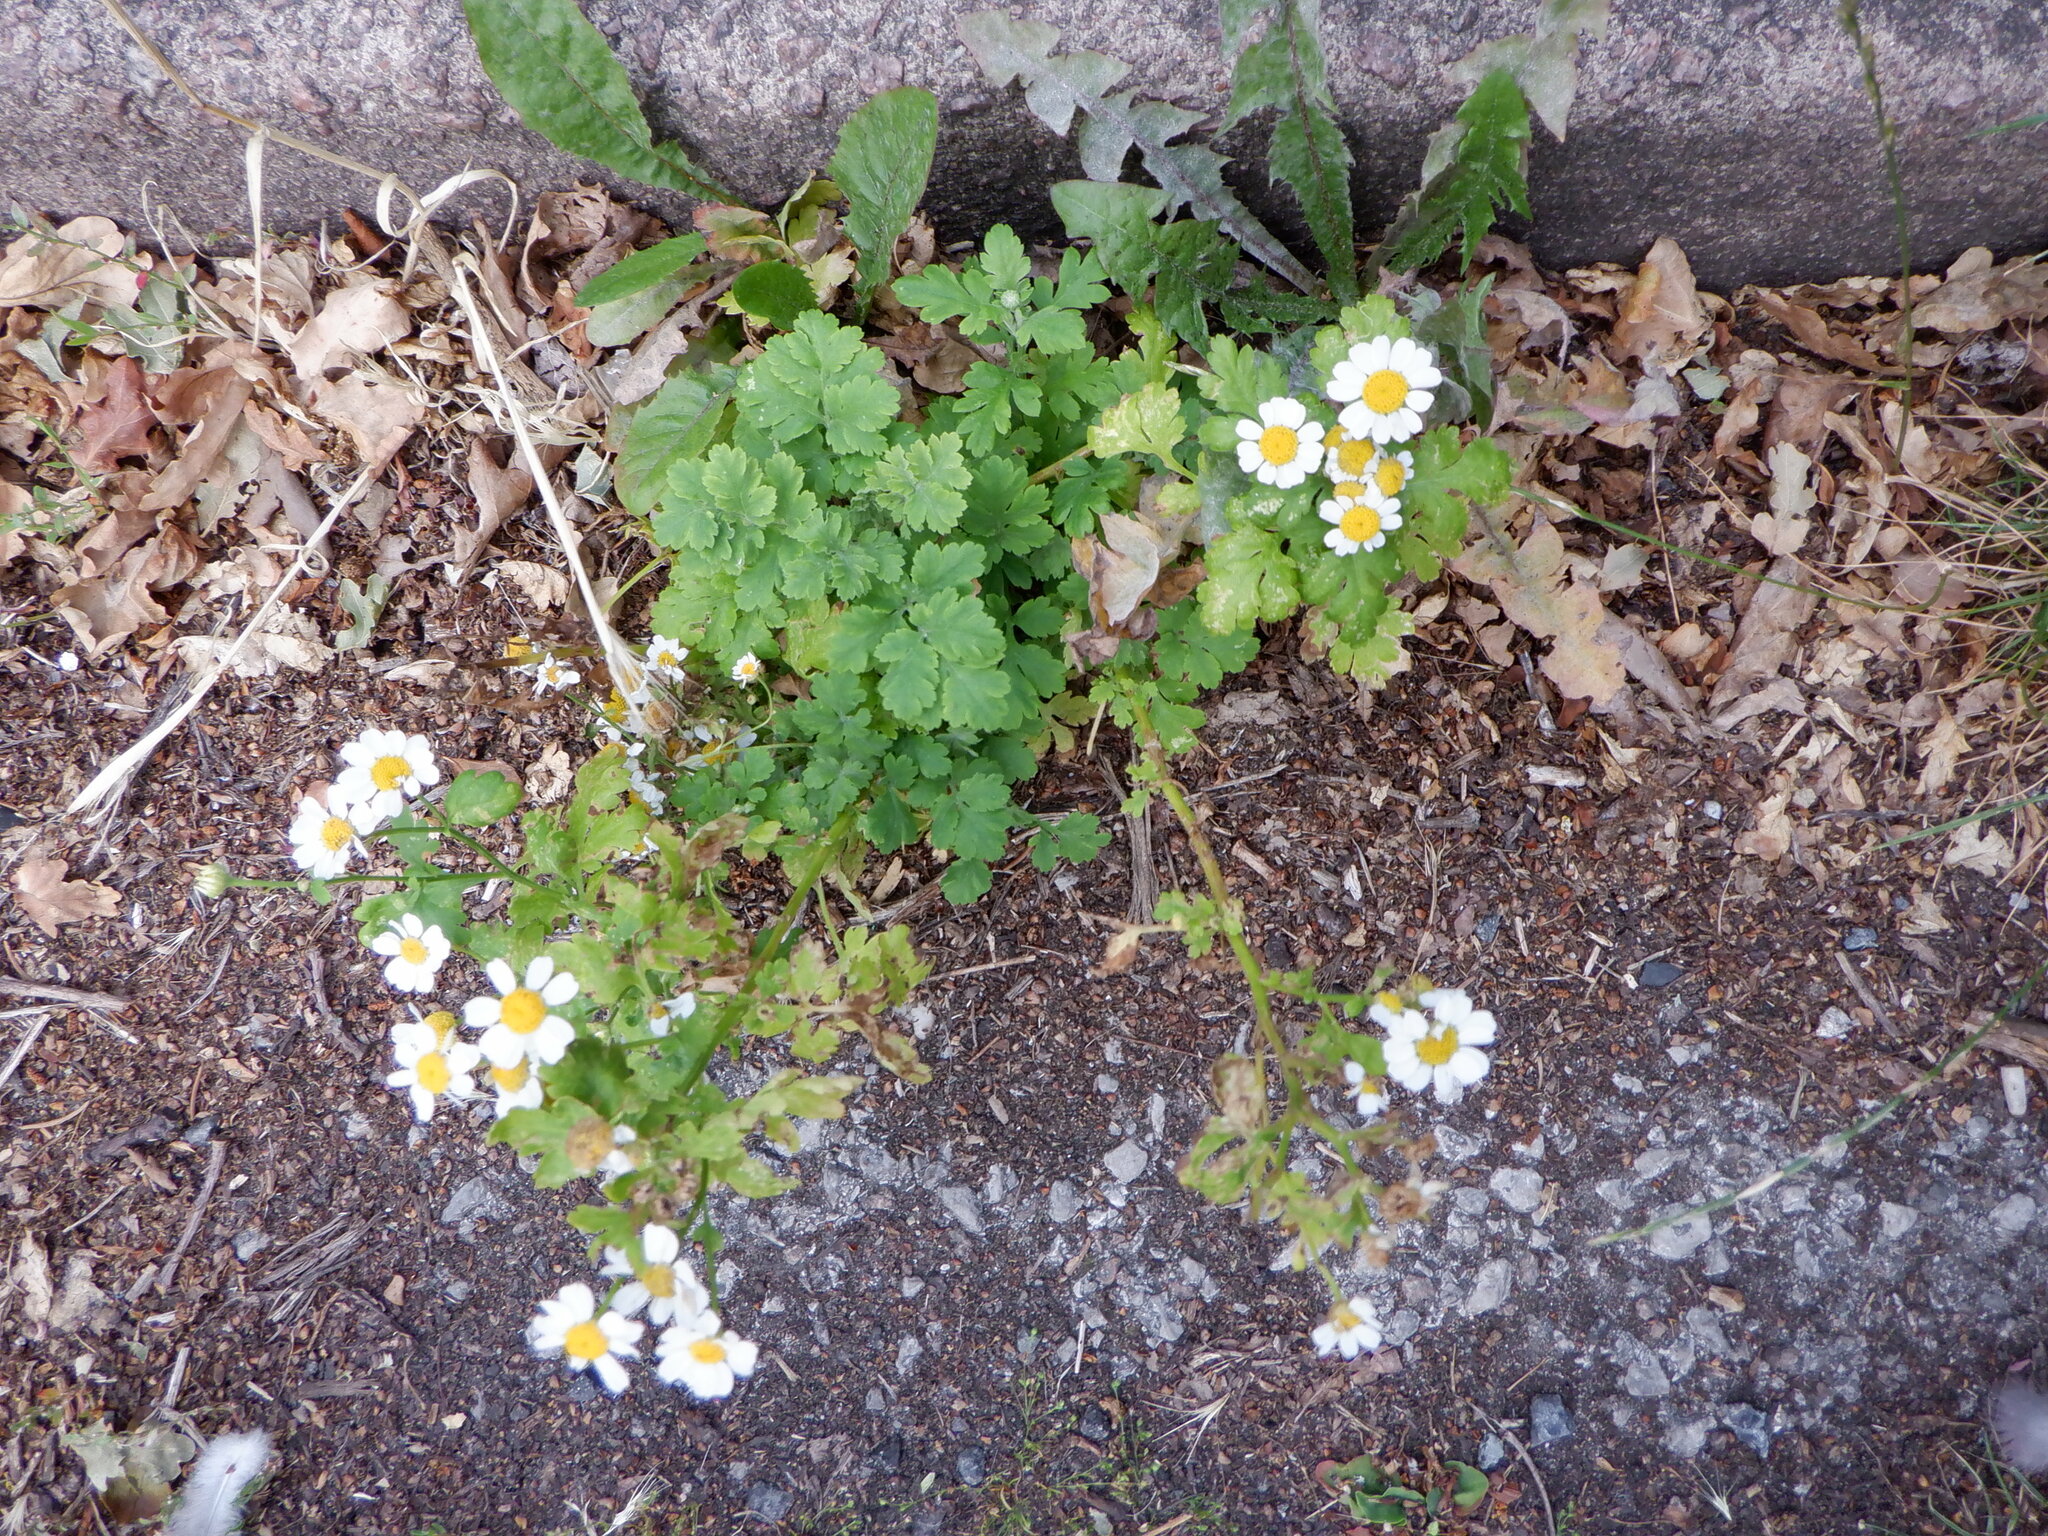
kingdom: Plantae
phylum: Tracheophyta
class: Magnoliopsida
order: Asterales
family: Asteraceae
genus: Tanacetum
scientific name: Tanacetum parthenium
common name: Feverfew
